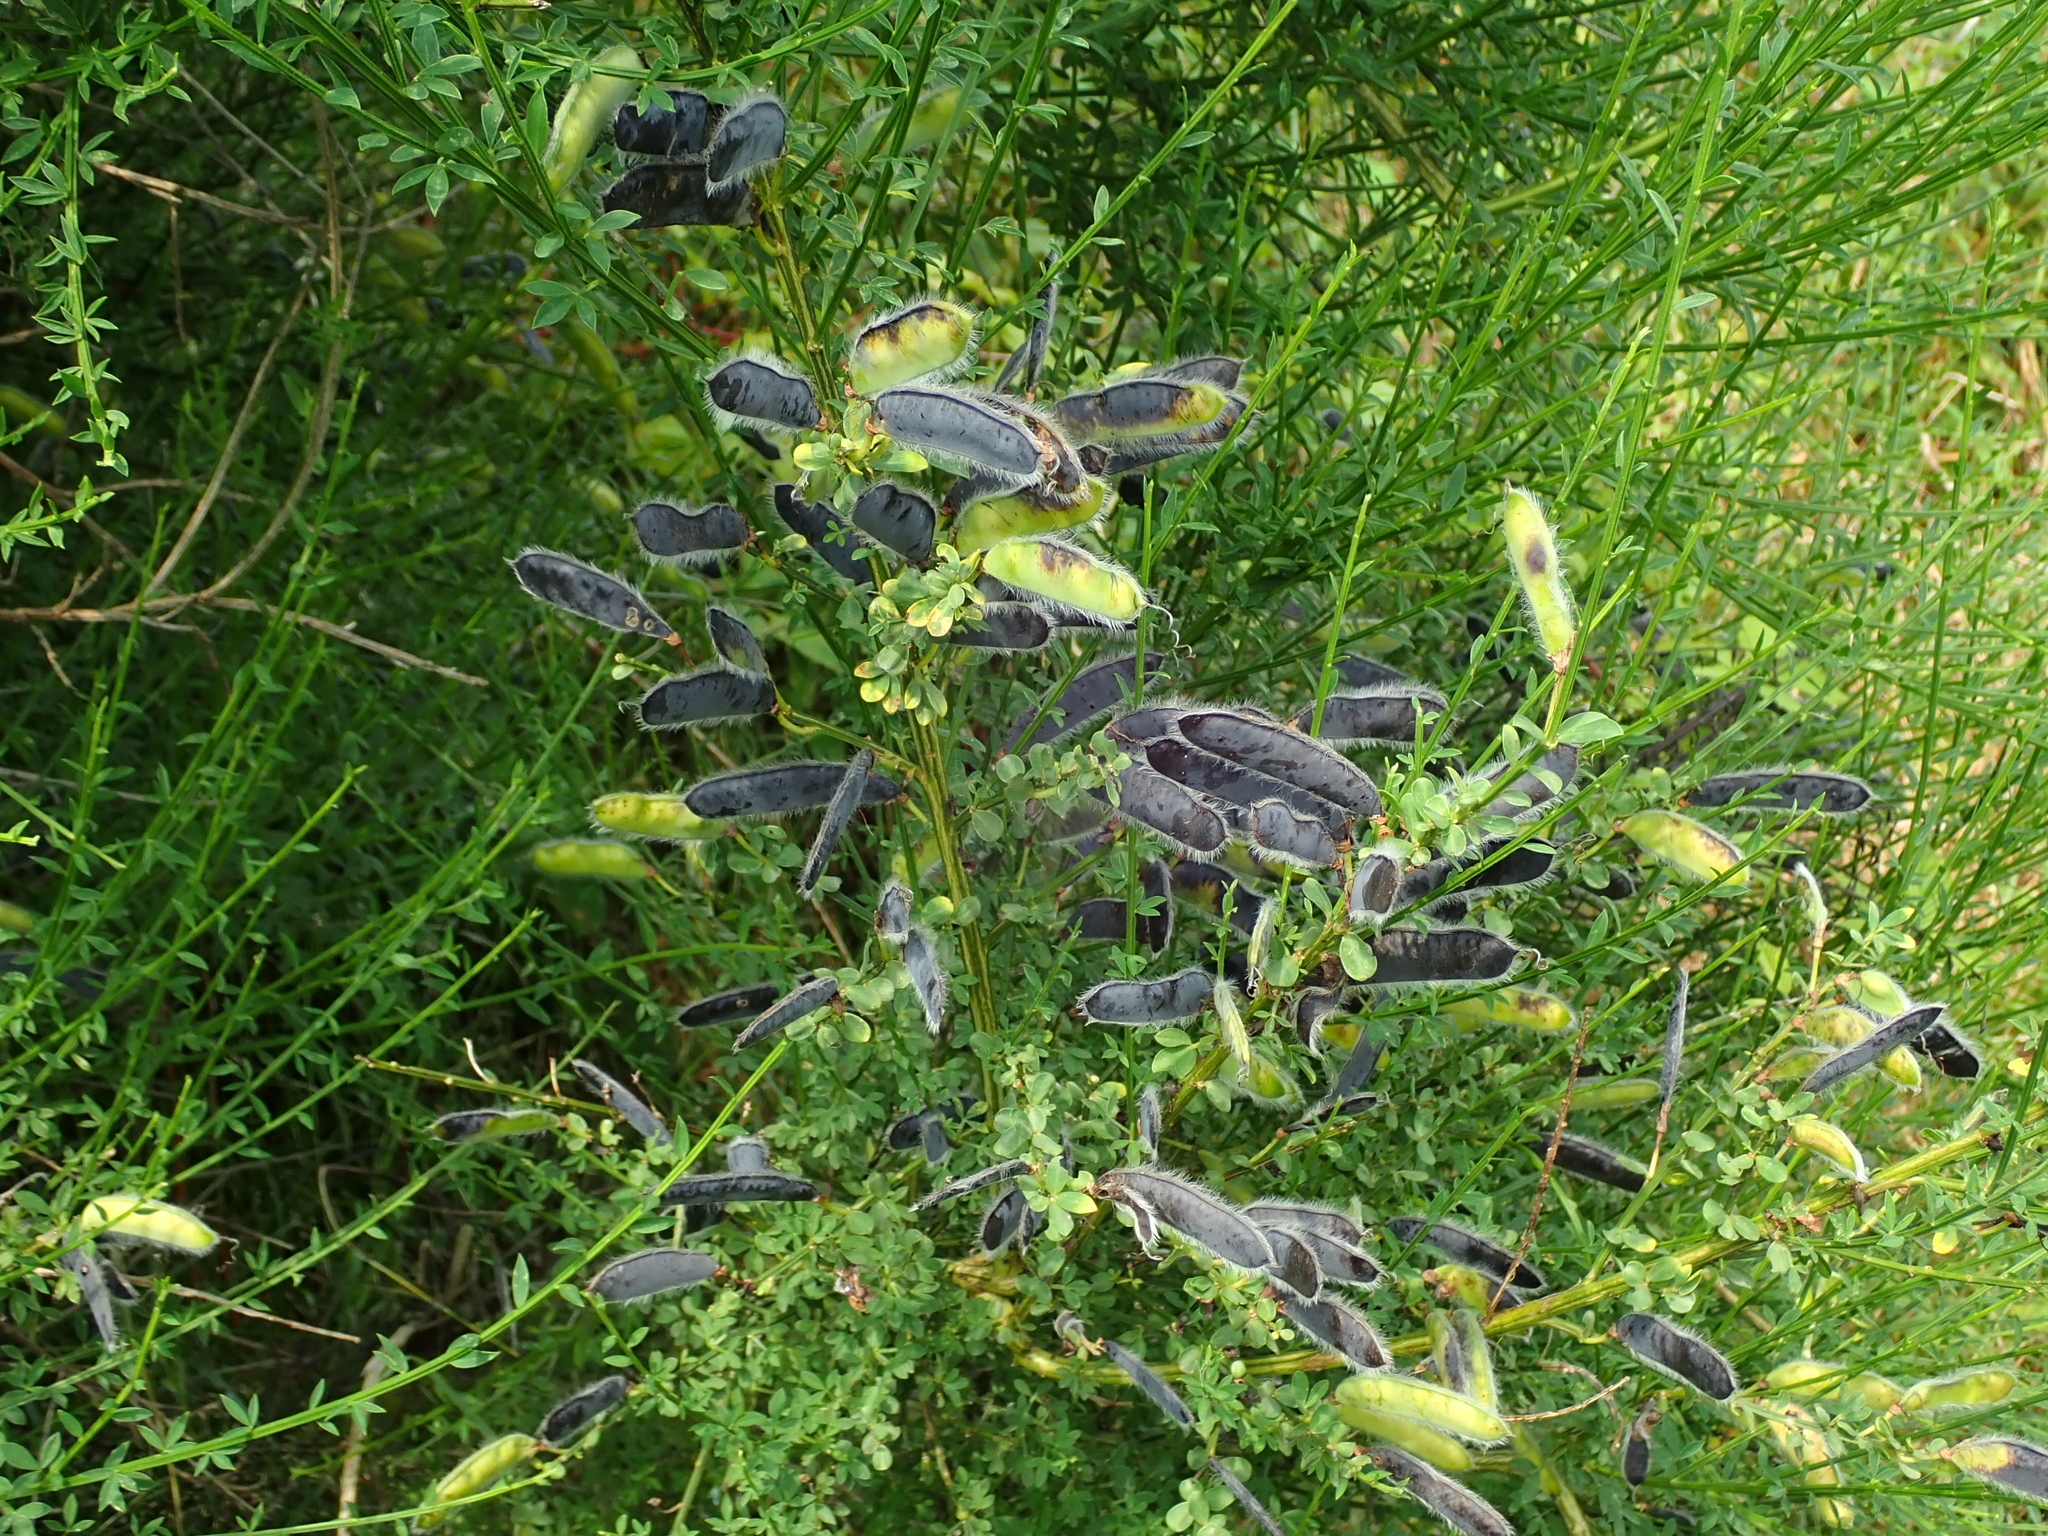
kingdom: Plantae
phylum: Tracheophyta
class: Magnoliopsida
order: Fabales
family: Fabaceae
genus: Cytisus
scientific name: Cytisus scoparius
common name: Scotch broom
